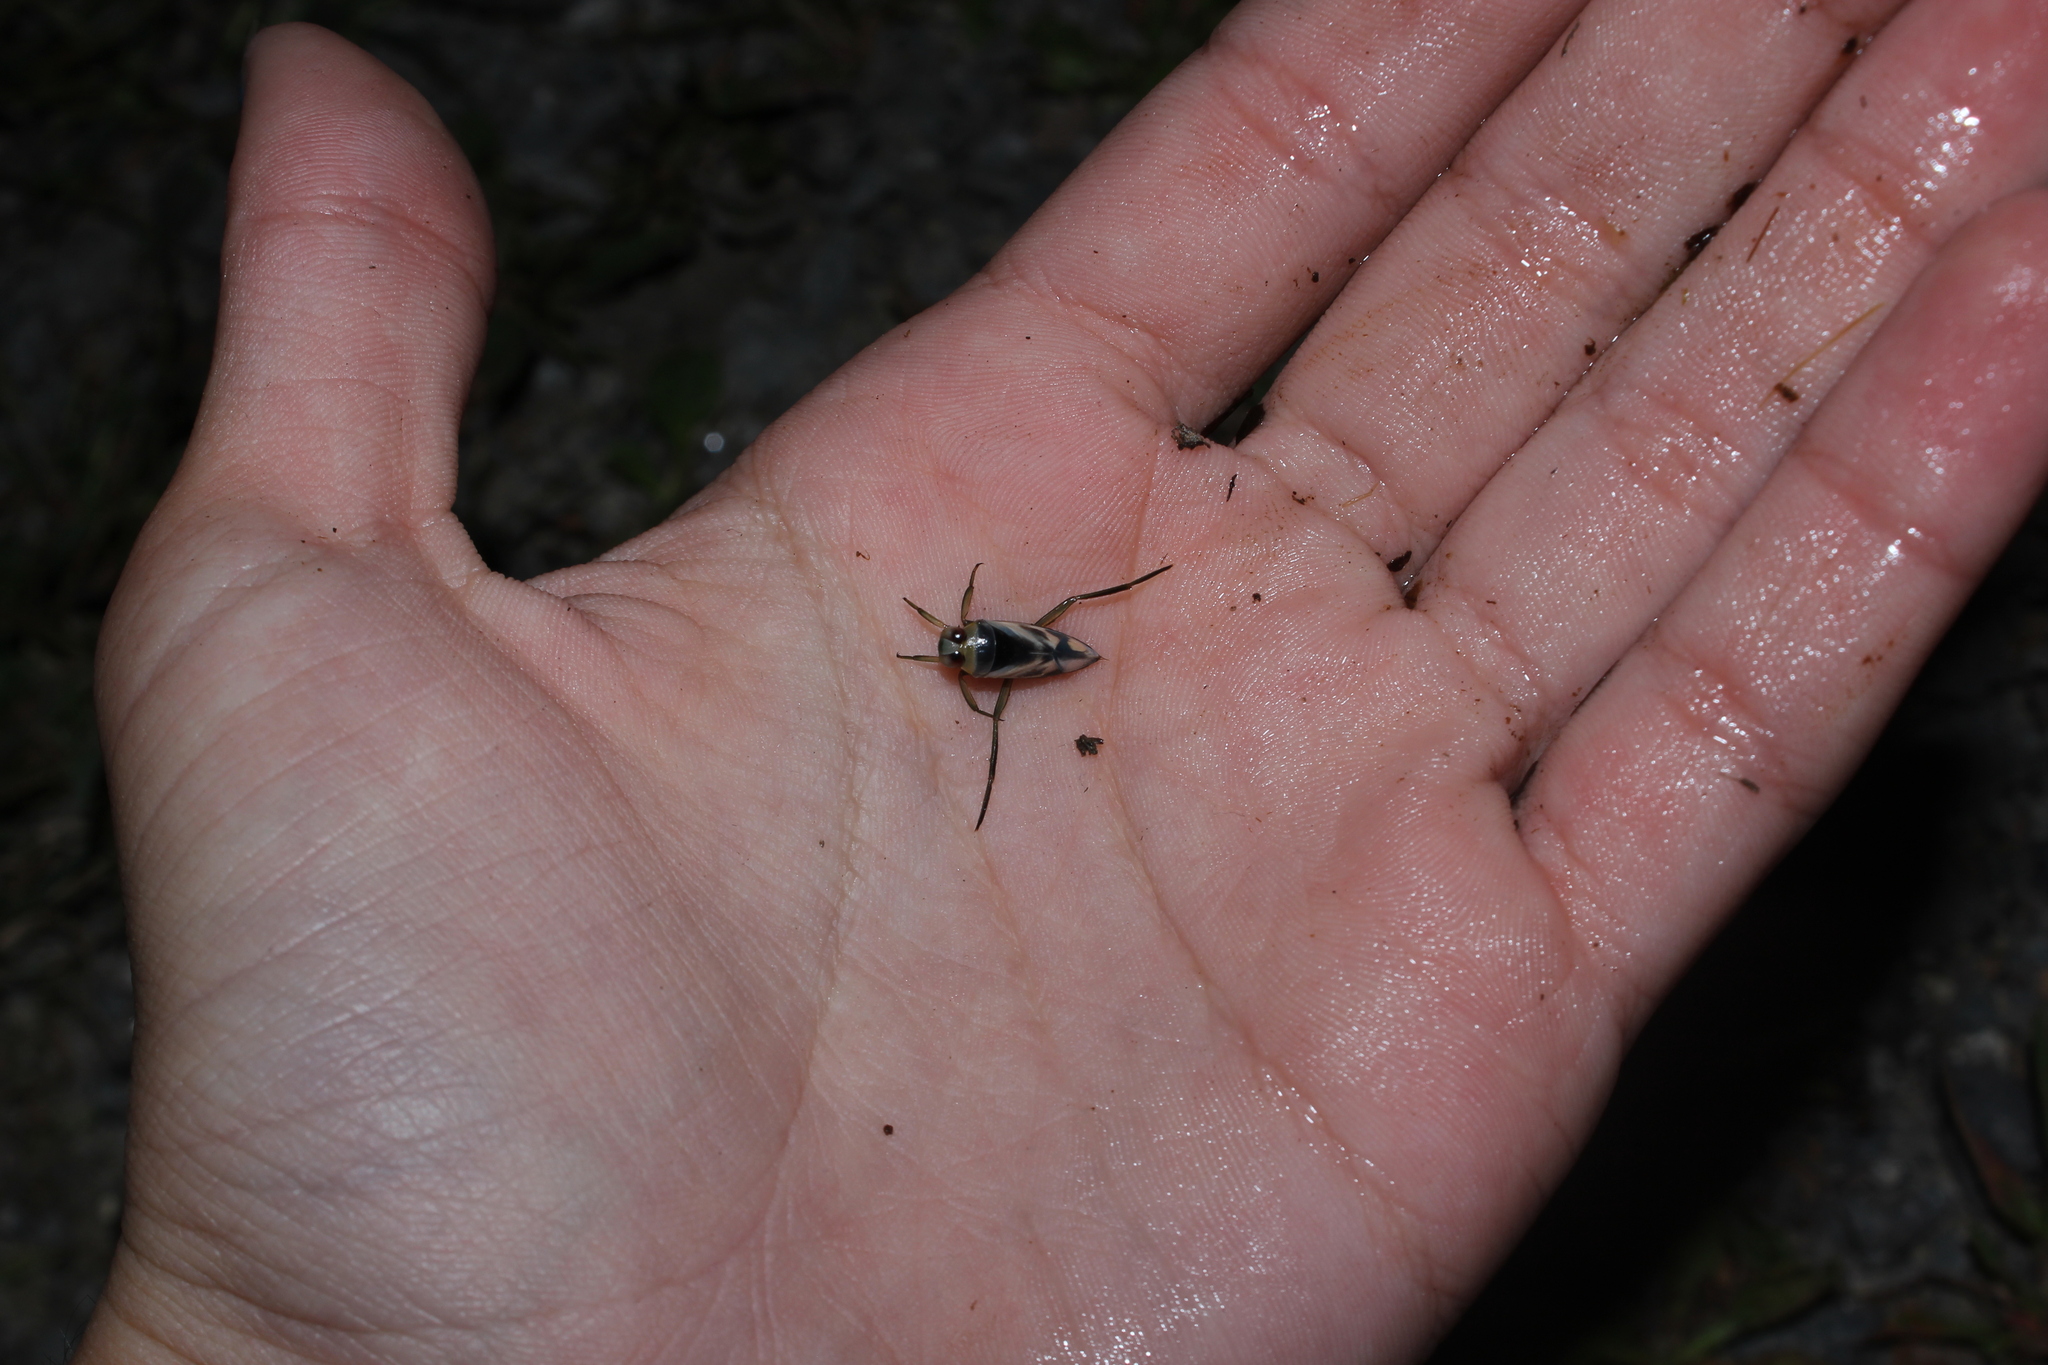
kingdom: Animalia
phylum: Arthropoda
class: Insecta
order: Hemiptera
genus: Paranecta
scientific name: Paranecta
